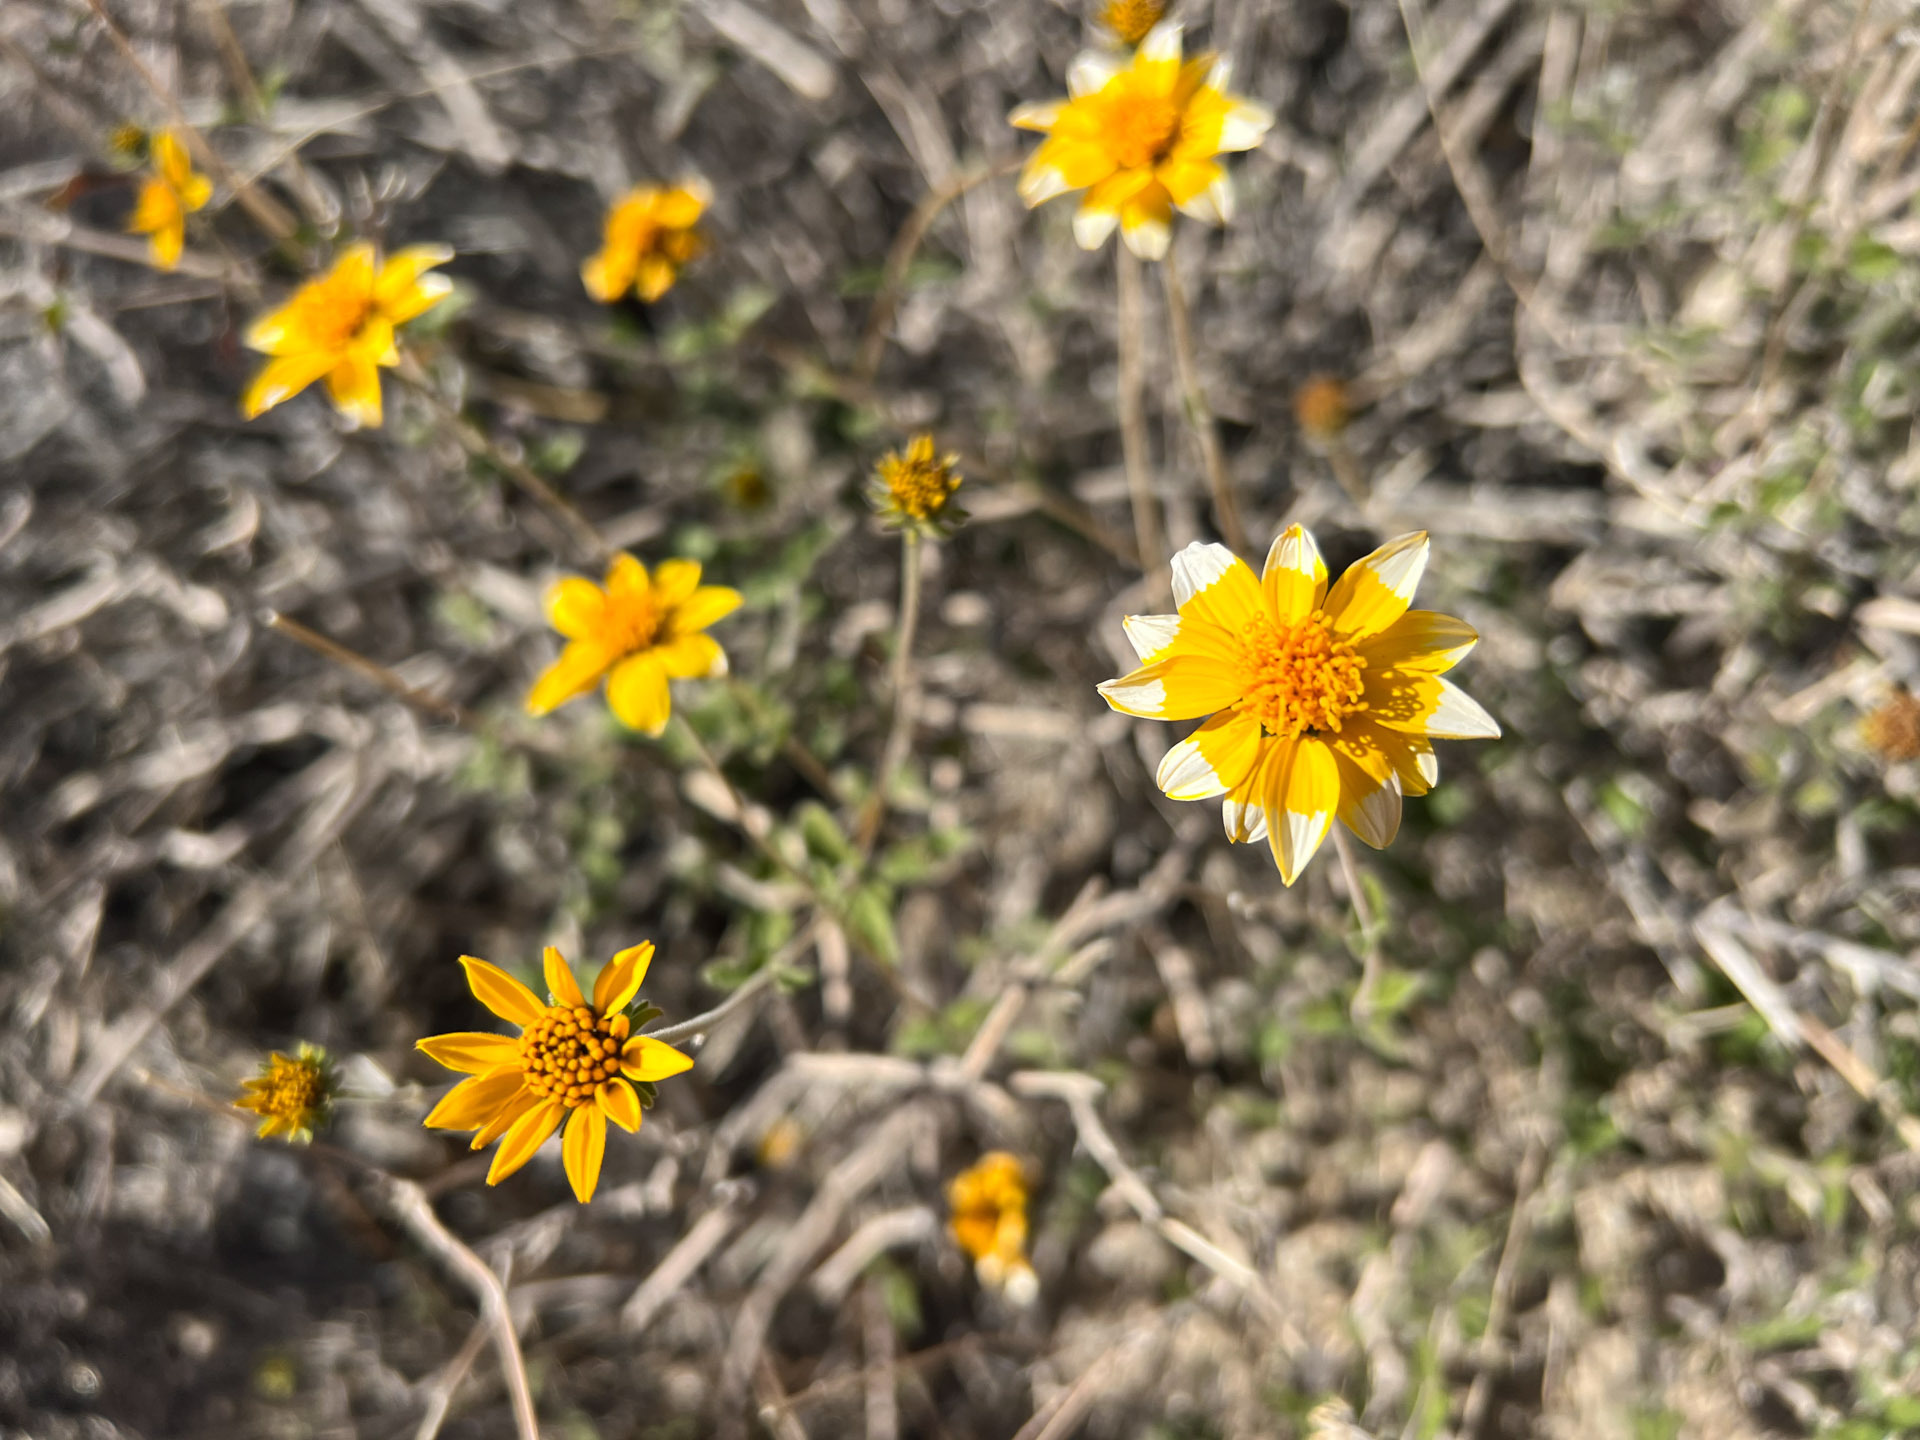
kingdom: Plantae
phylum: Tracheophyta
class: Magnoliopsida
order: Asterales
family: Asteraceae
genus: Bahiopsis
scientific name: Bahiopsis parishii
